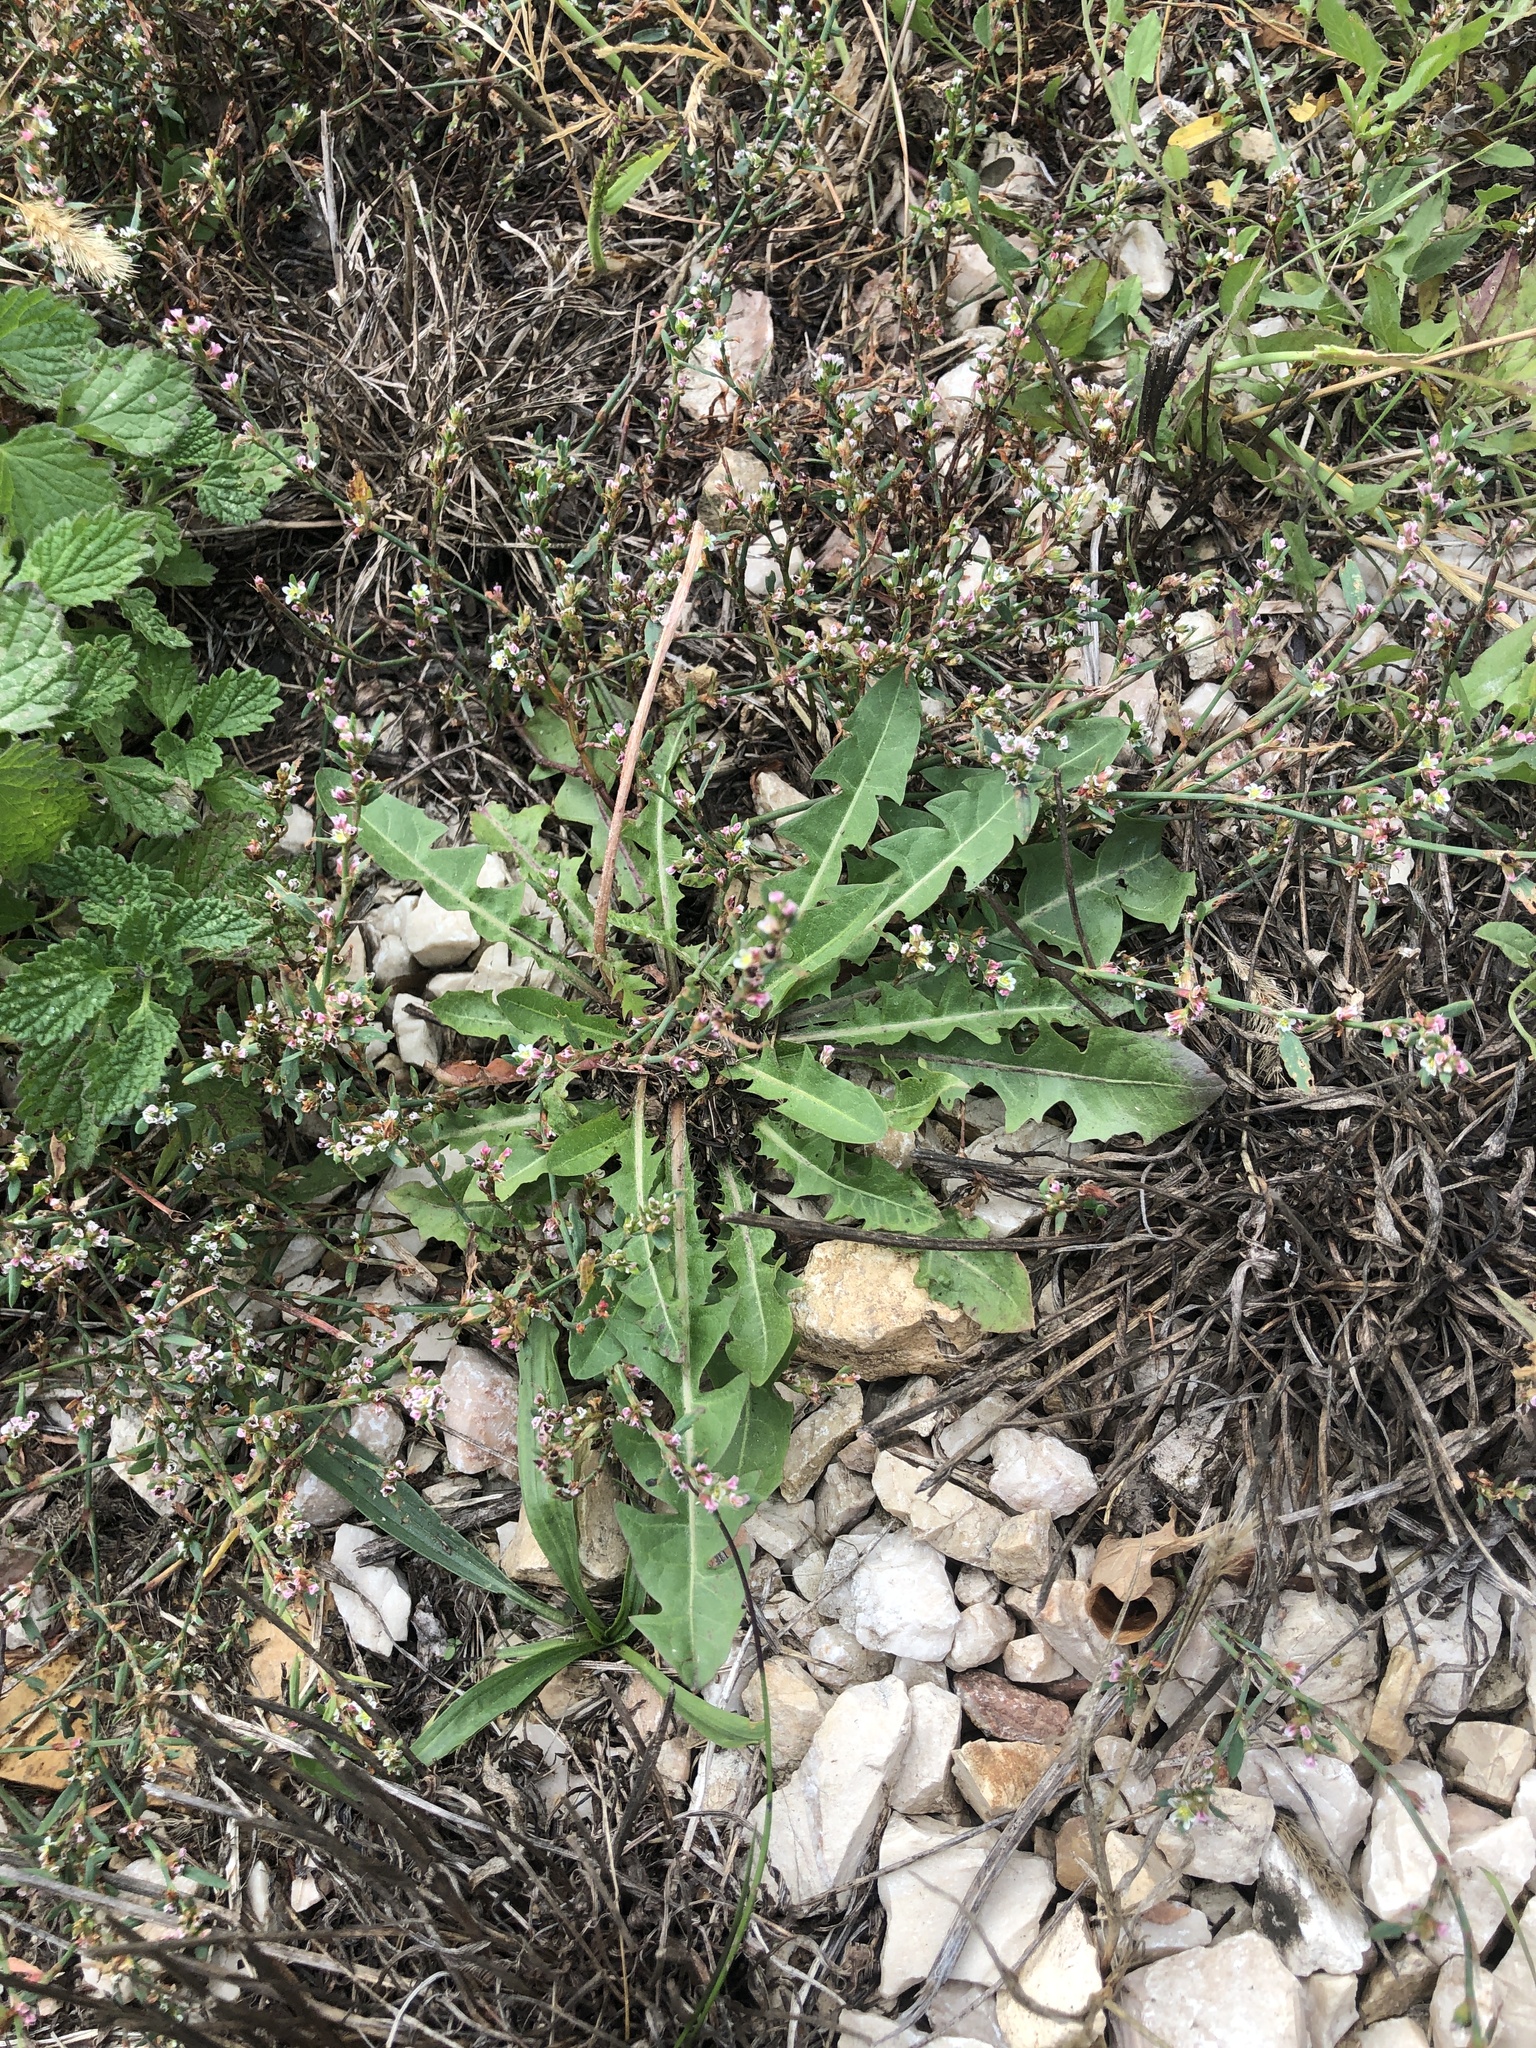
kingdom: Plantae
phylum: Tracheophyta
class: Magnoliopsida
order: Asterales
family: Asteraceae
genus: Taraxacum
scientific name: Taraxacum officinale
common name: Common dandelion
